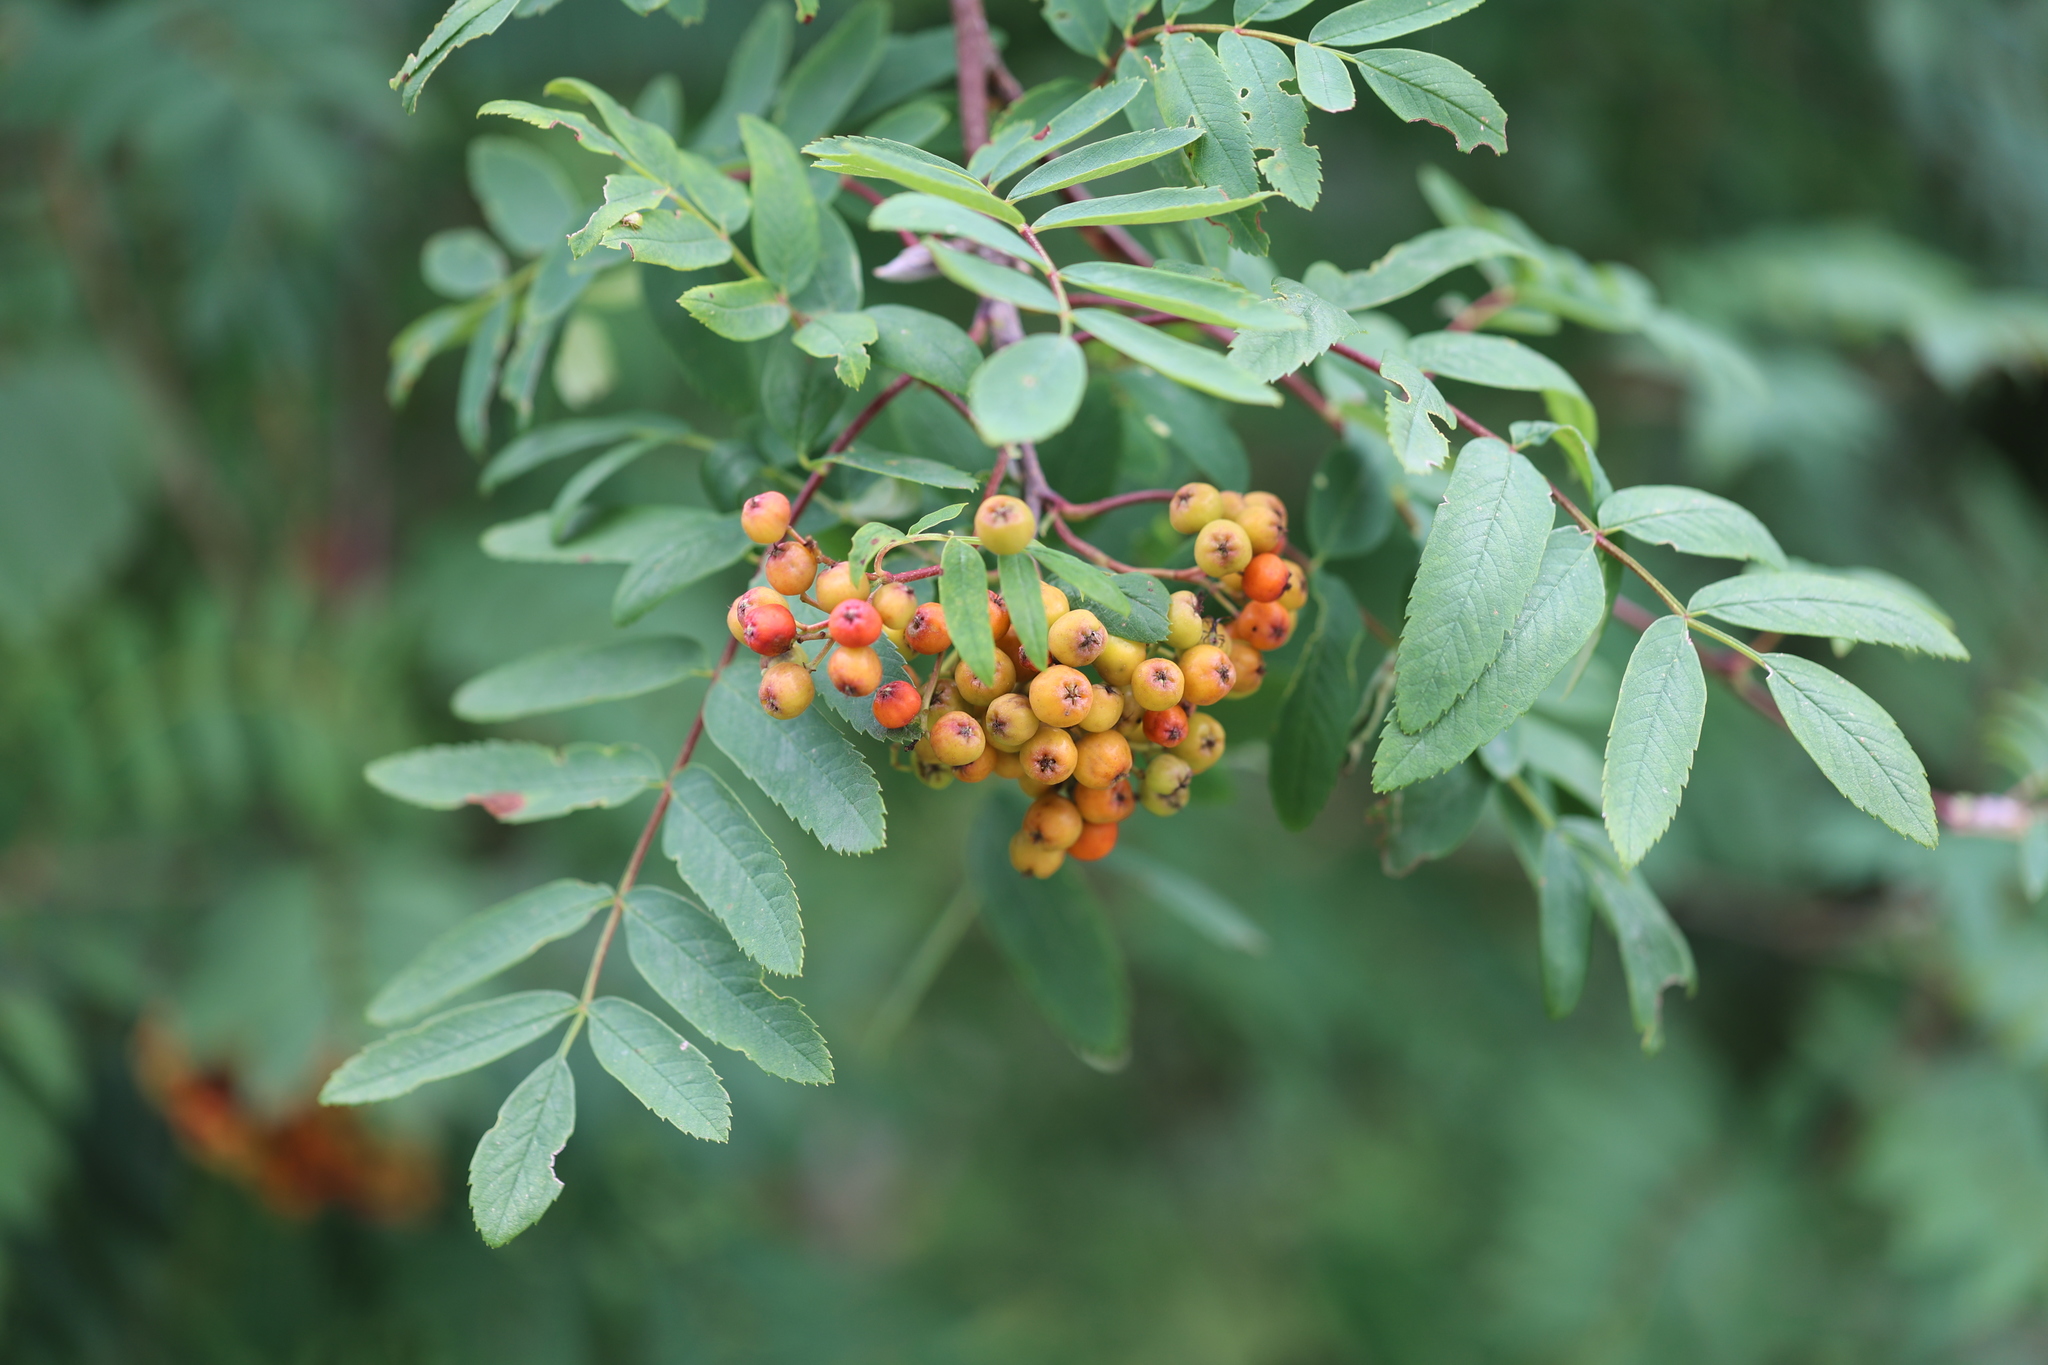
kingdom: Plantae
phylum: Tracheophyta
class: Magnoliopsida
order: Rosales
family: Rosaceae
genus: Sorbus
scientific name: Sorbus aucuparia
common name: Rowan
